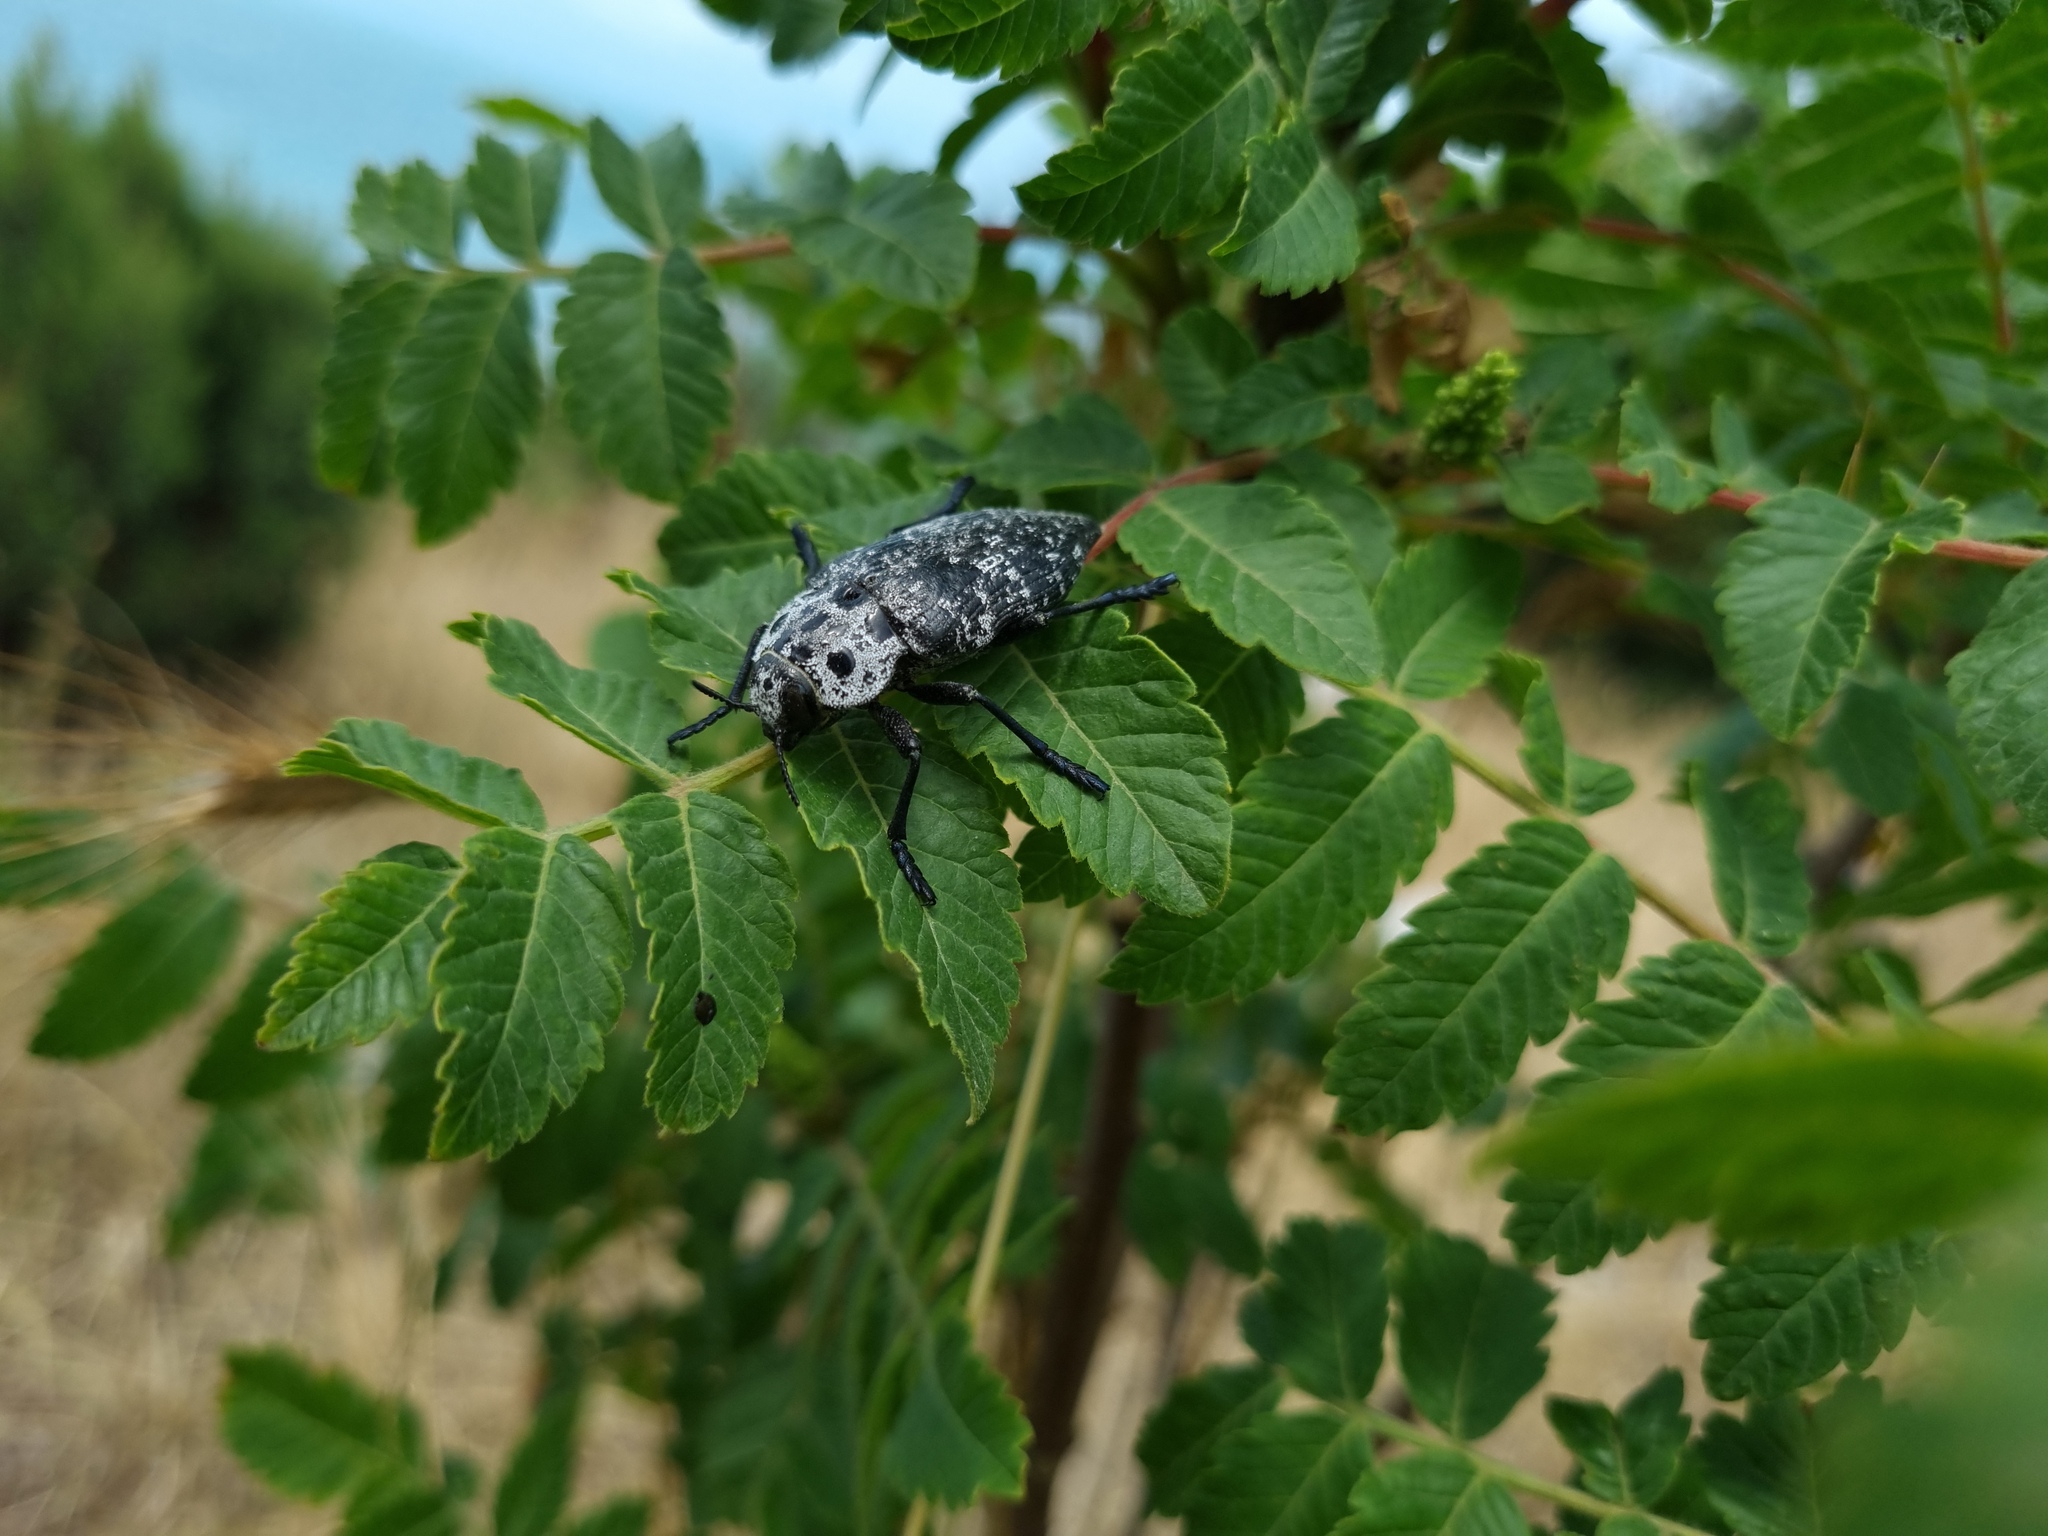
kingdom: Animalia
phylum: Arthropoda
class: Insecta
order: Coleoptera
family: Buprestidae
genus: Capnodis
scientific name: Capnodis cariosa
